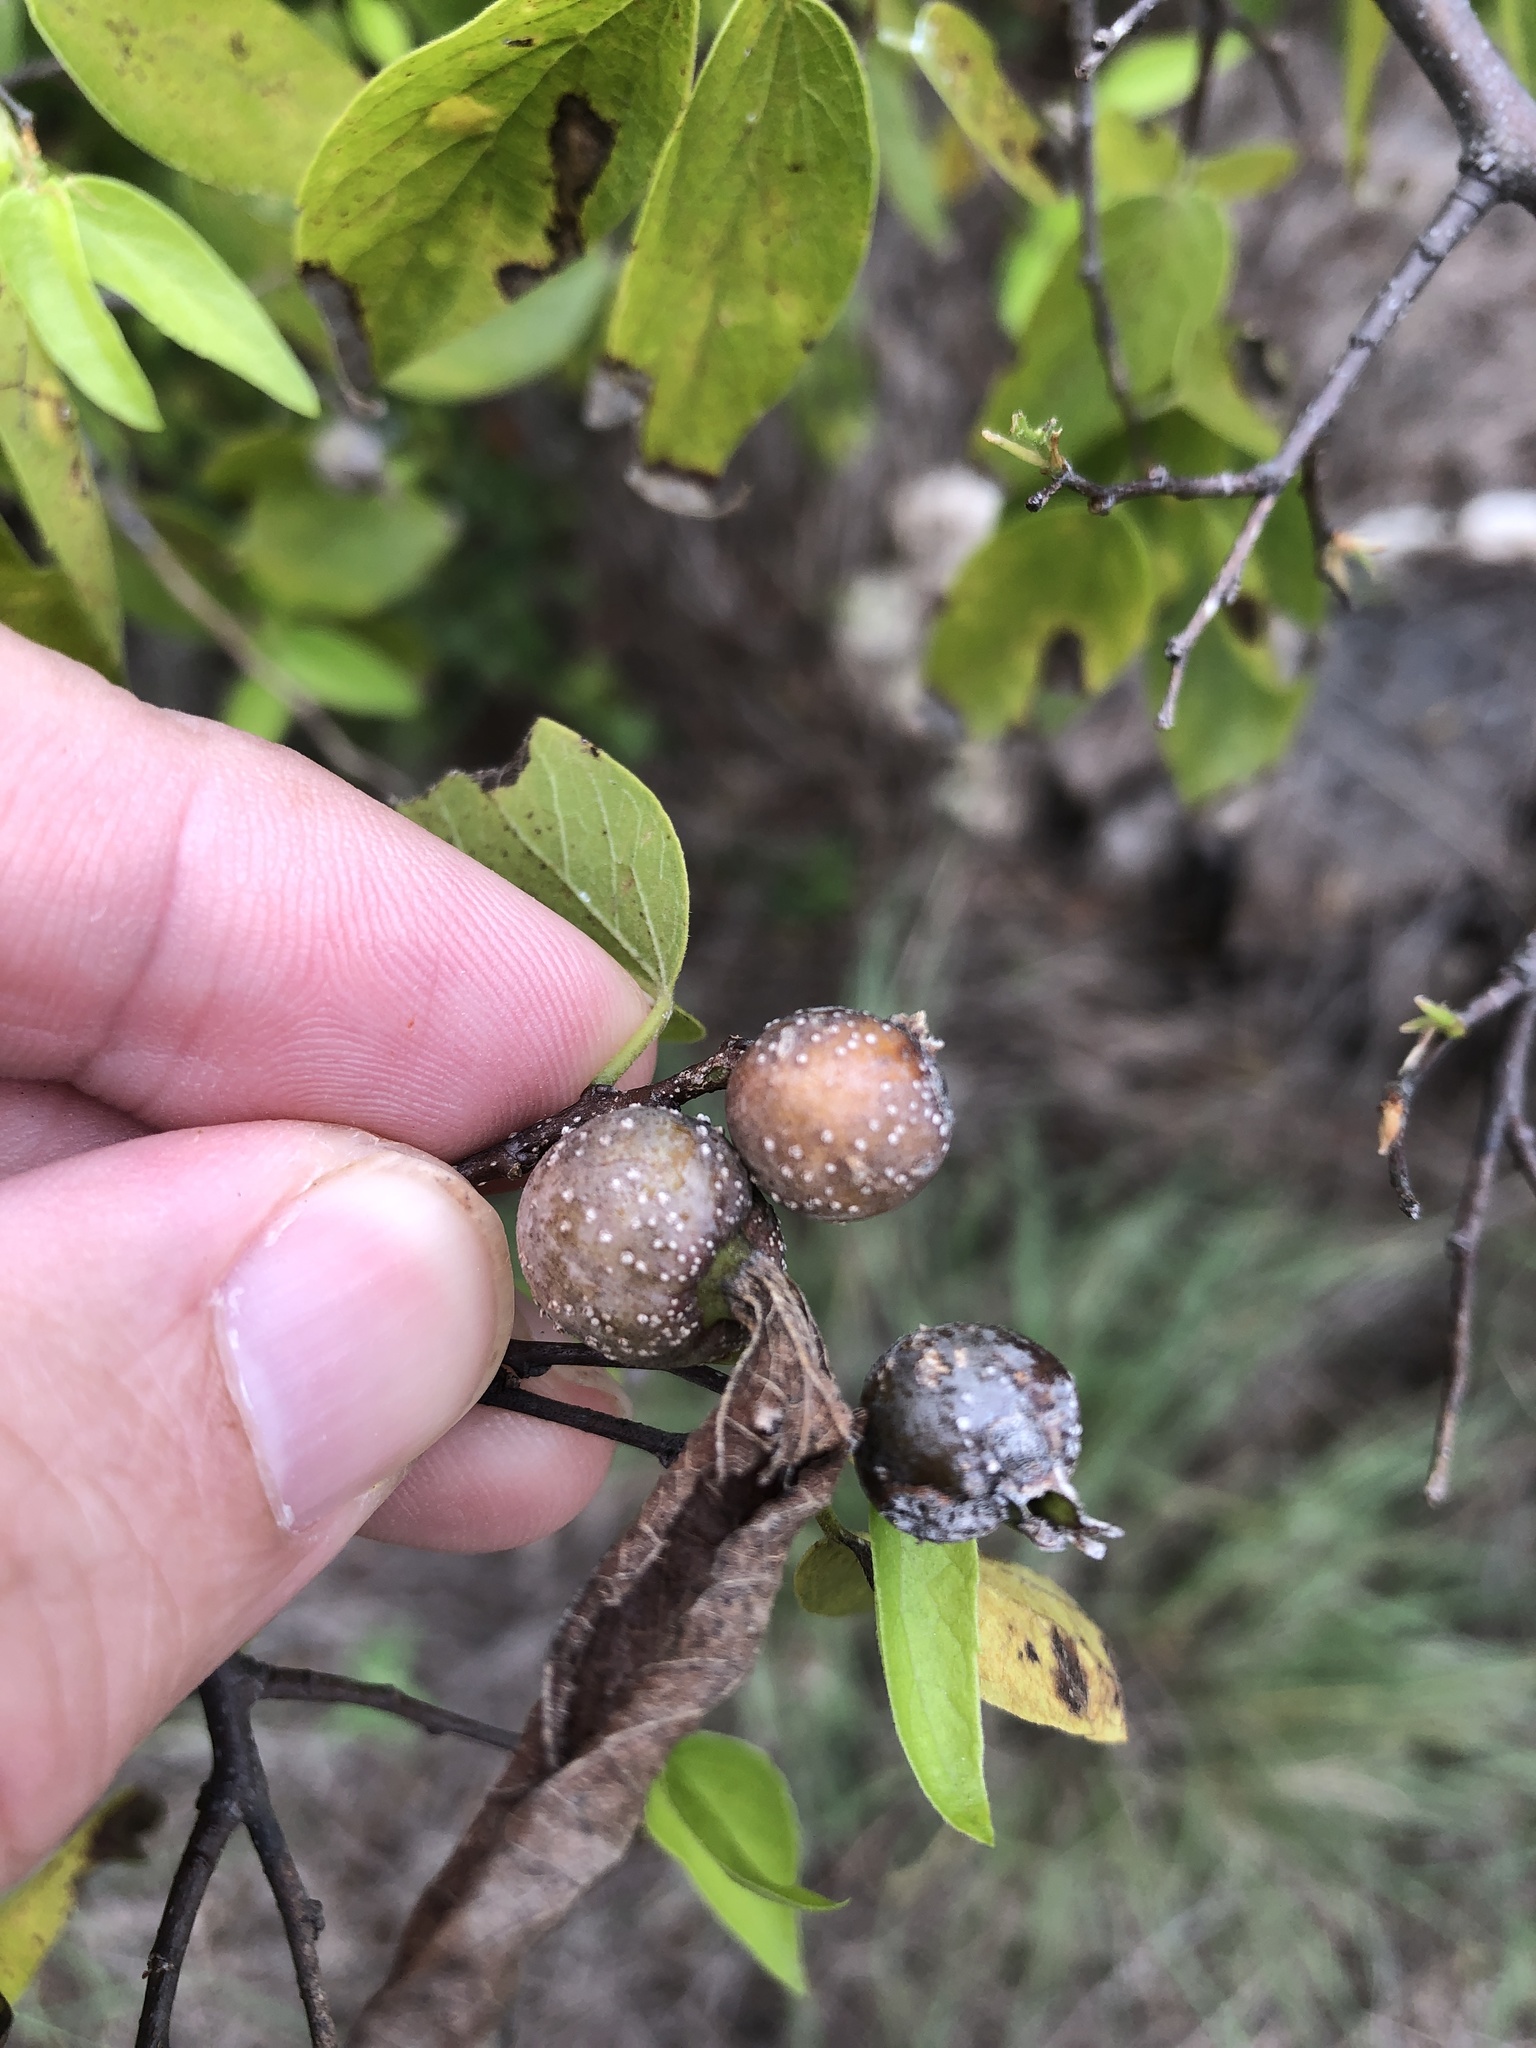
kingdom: Animalia
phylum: Arthropoda
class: Insecta
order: Hemiptera
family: Aphalaridae
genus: Pachypsylla
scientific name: Pachypsylla venusta
